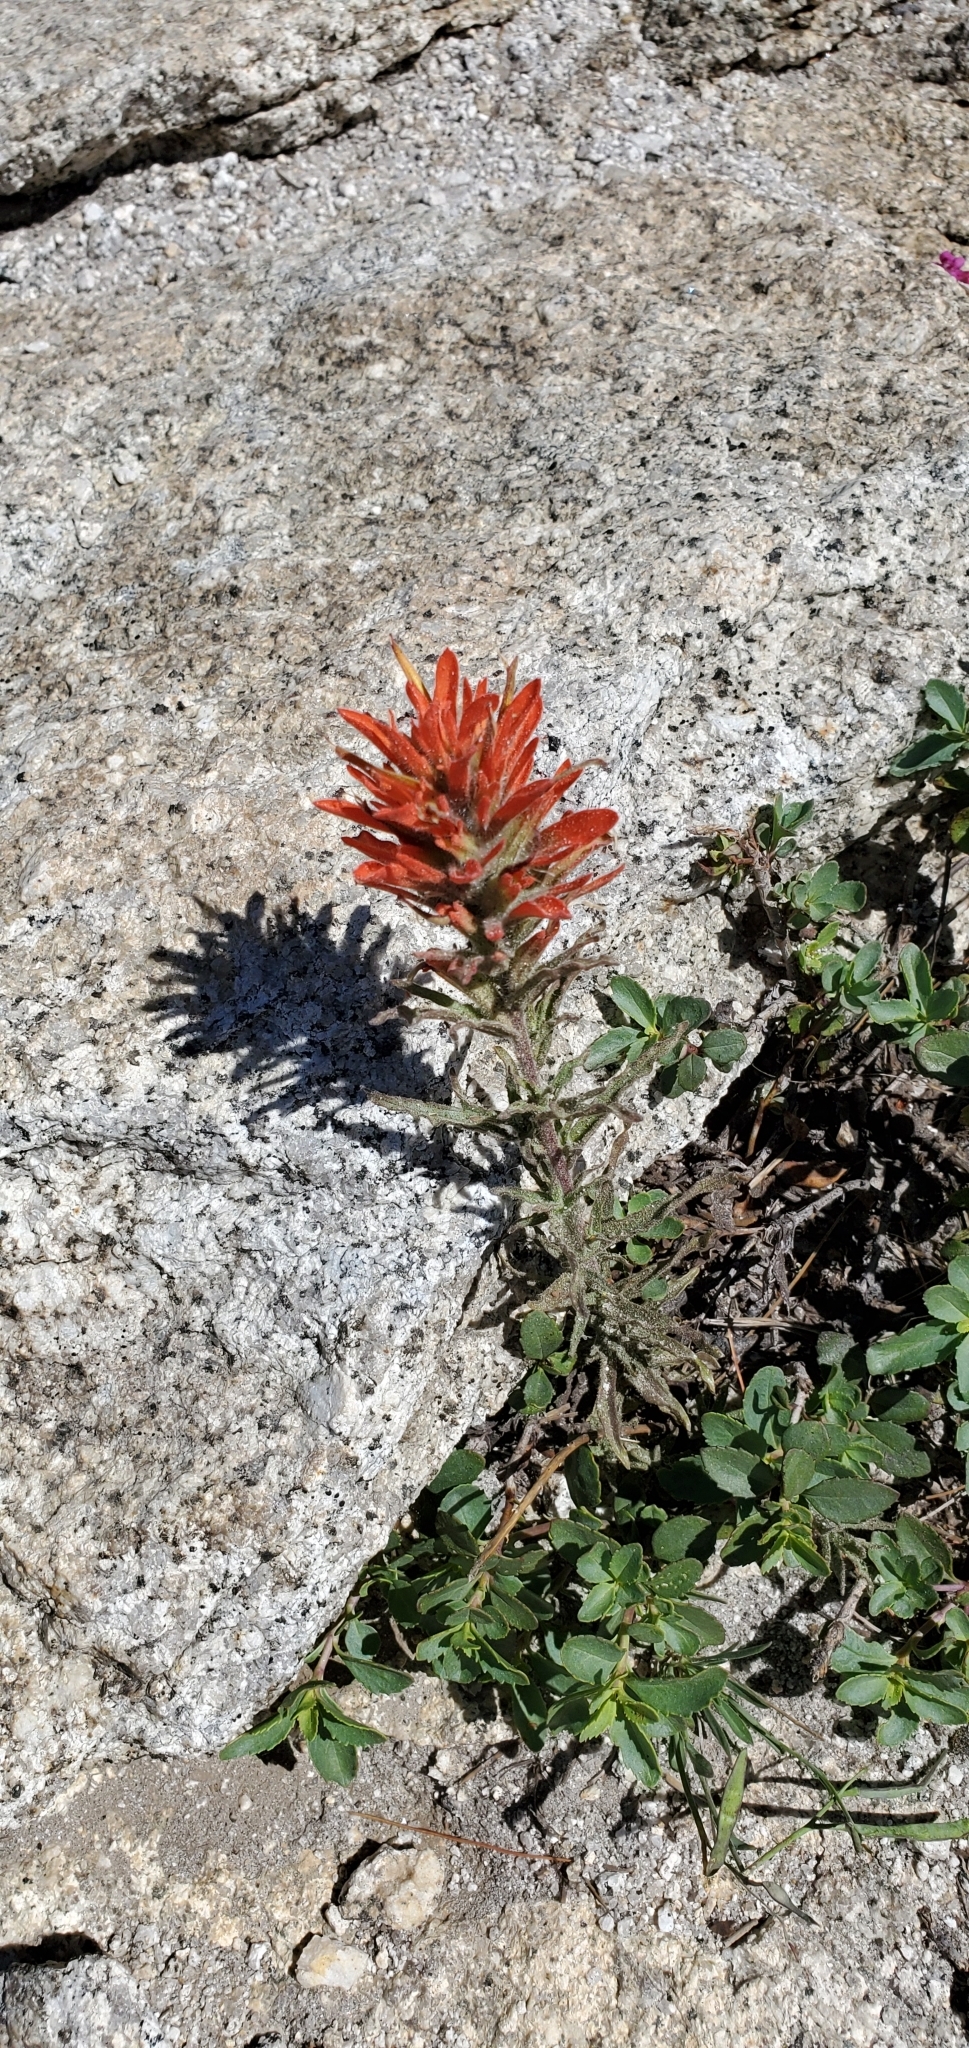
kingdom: Plantae
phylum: Tracheophyta
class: Magnoliopsida
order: Lamiales
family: Orobanchaceae
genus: Castilleja
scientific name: Castilleja applegatei
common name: Wavy-leaf paintbrush
